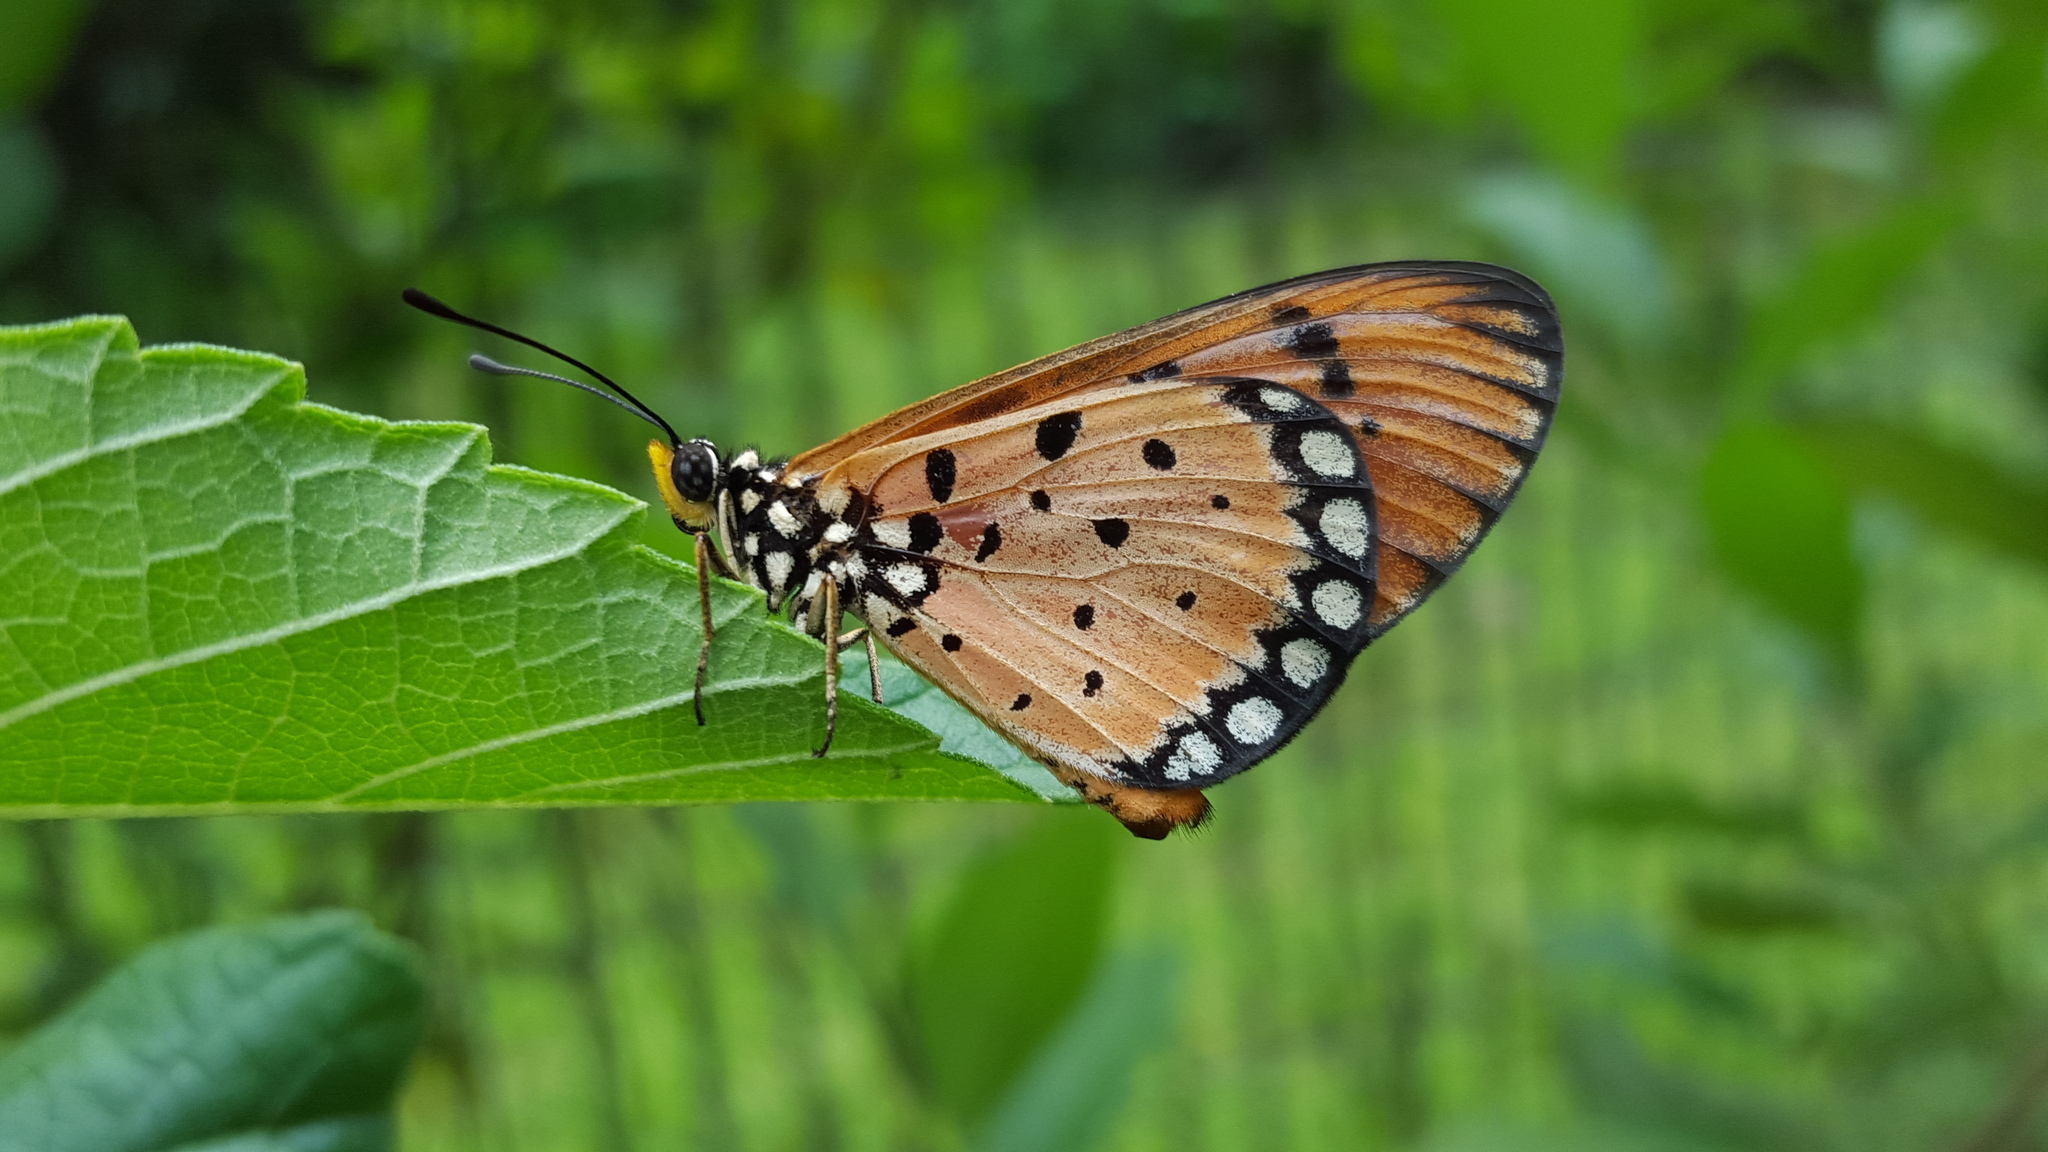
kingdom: Animalia
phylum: Arthropoda
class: Insecta
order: Lepidoptera
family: Nymphalidae
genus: Acraea
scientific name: Acraea terpsicore
